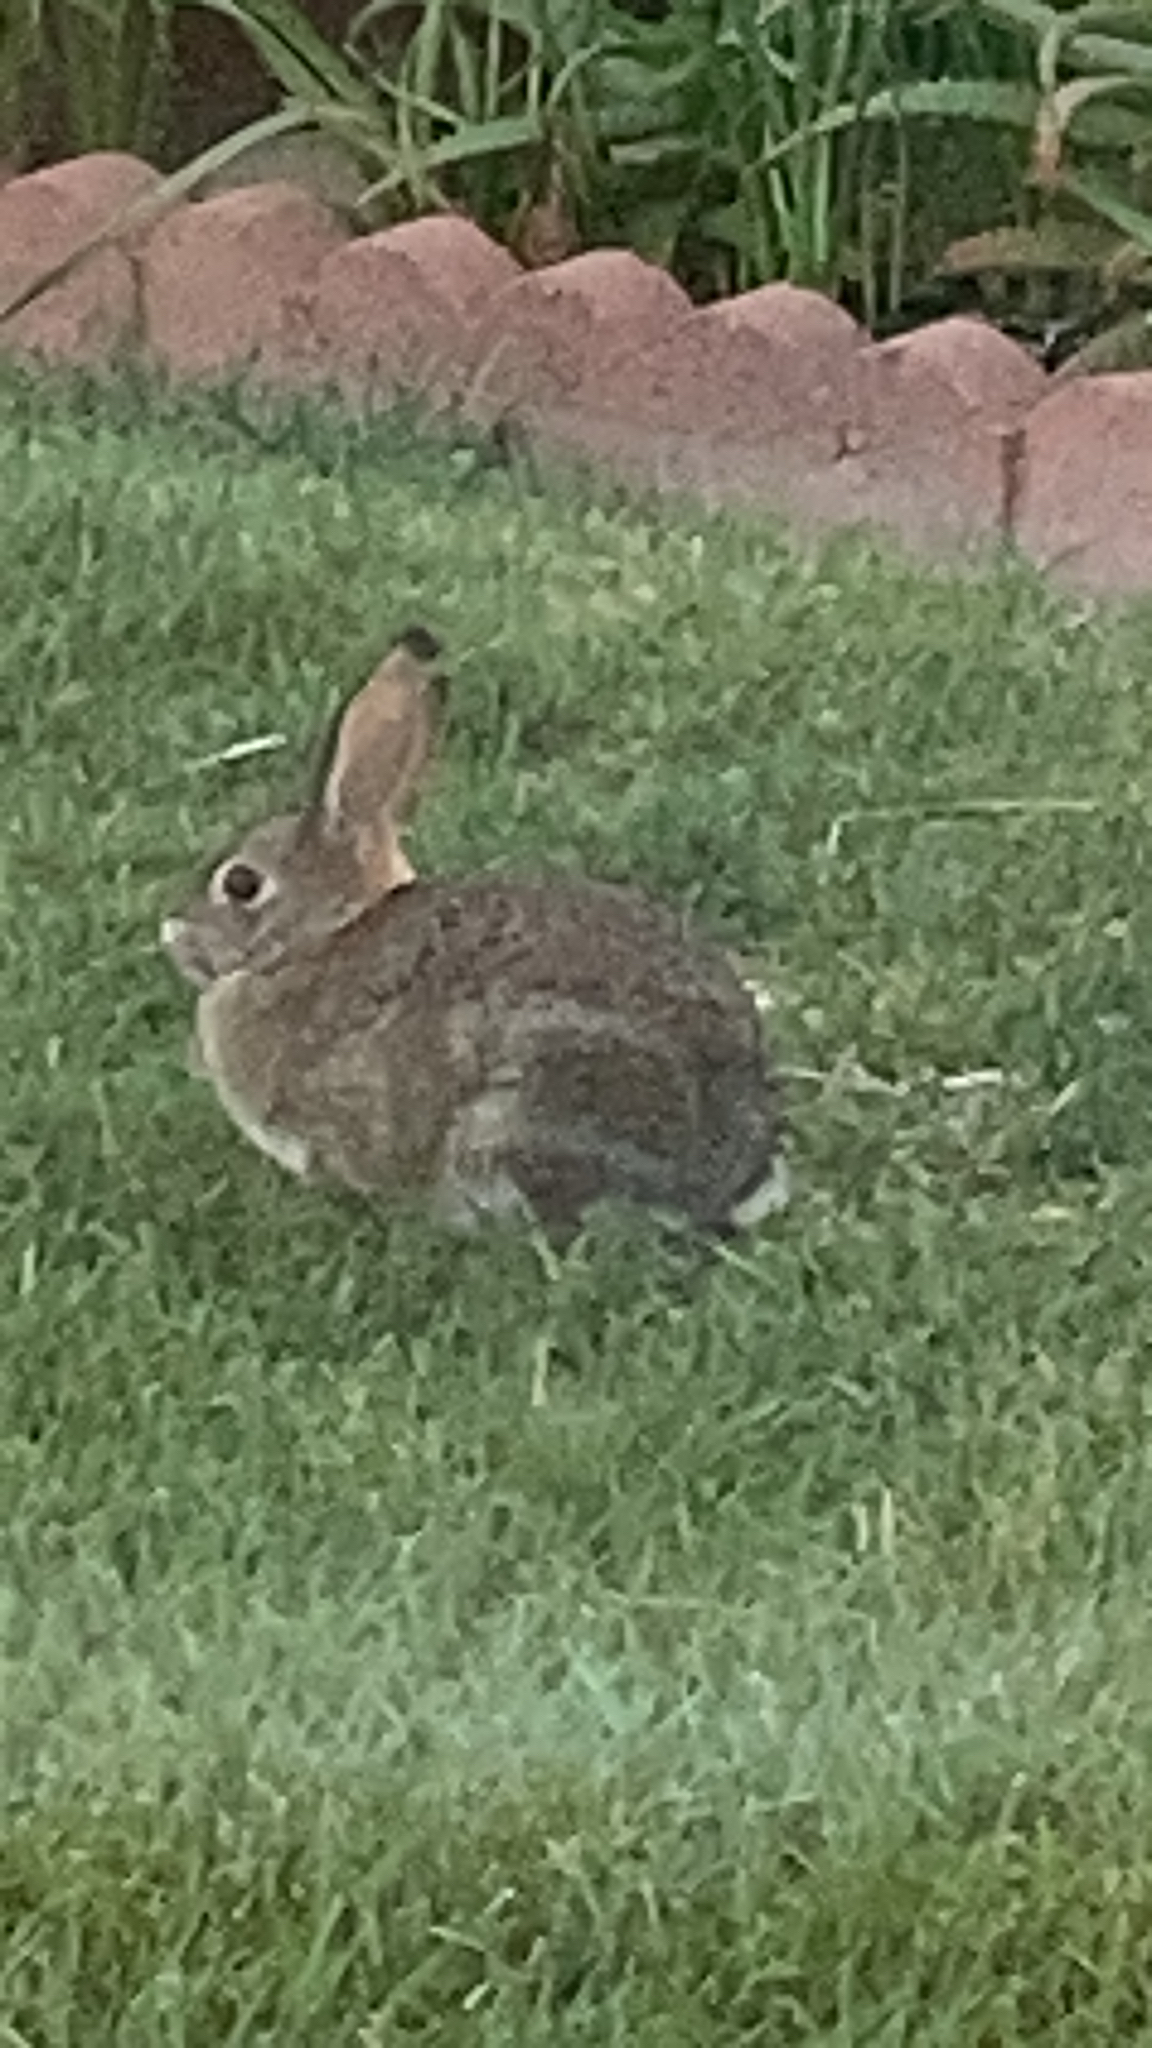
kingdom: Animalia
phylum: Chordata
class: Mammalia
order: Lagomorpha
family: Leporidae
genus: Sylvilagus
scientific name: Sylvilagus audubonii
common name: Desert cottontail
